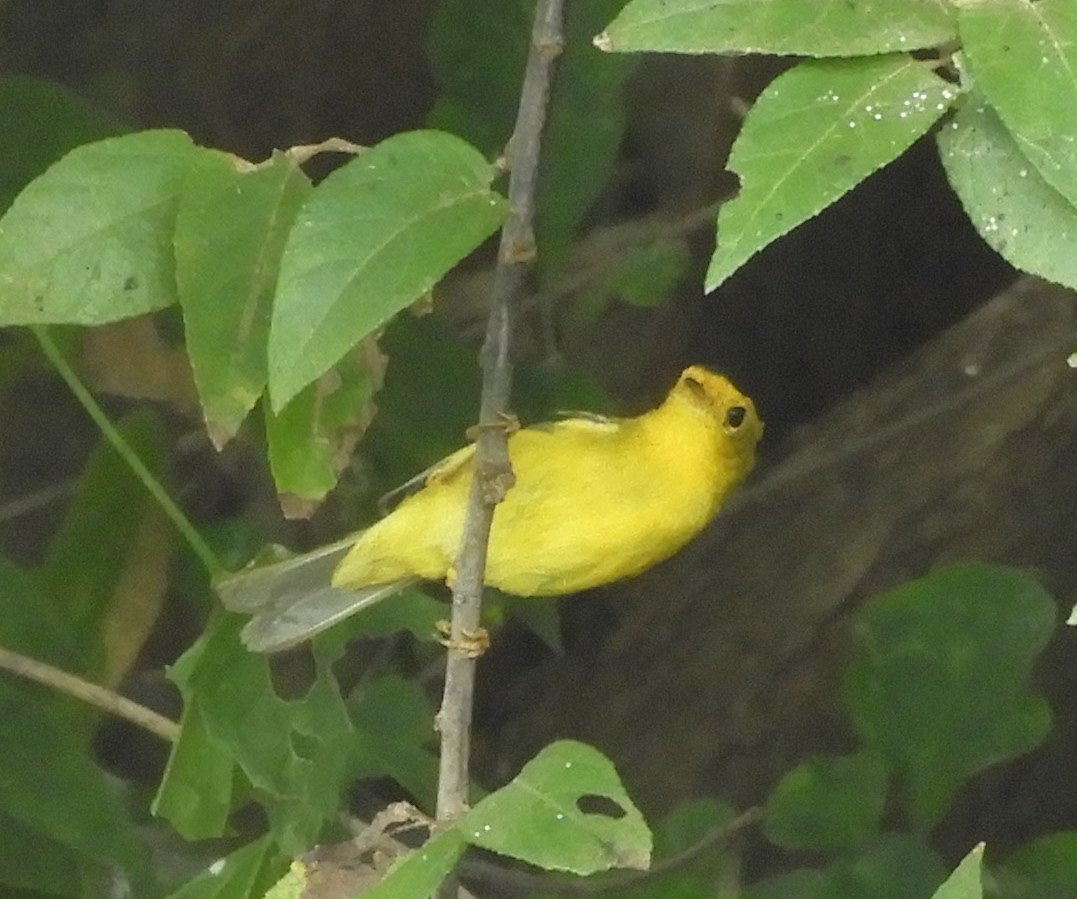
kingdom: Animalia
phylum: Chordata
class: Aves
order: Passeriformes
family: Parulidae
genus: Cardellina
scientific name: Cardellina pusilla
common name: Wilson's warbler
